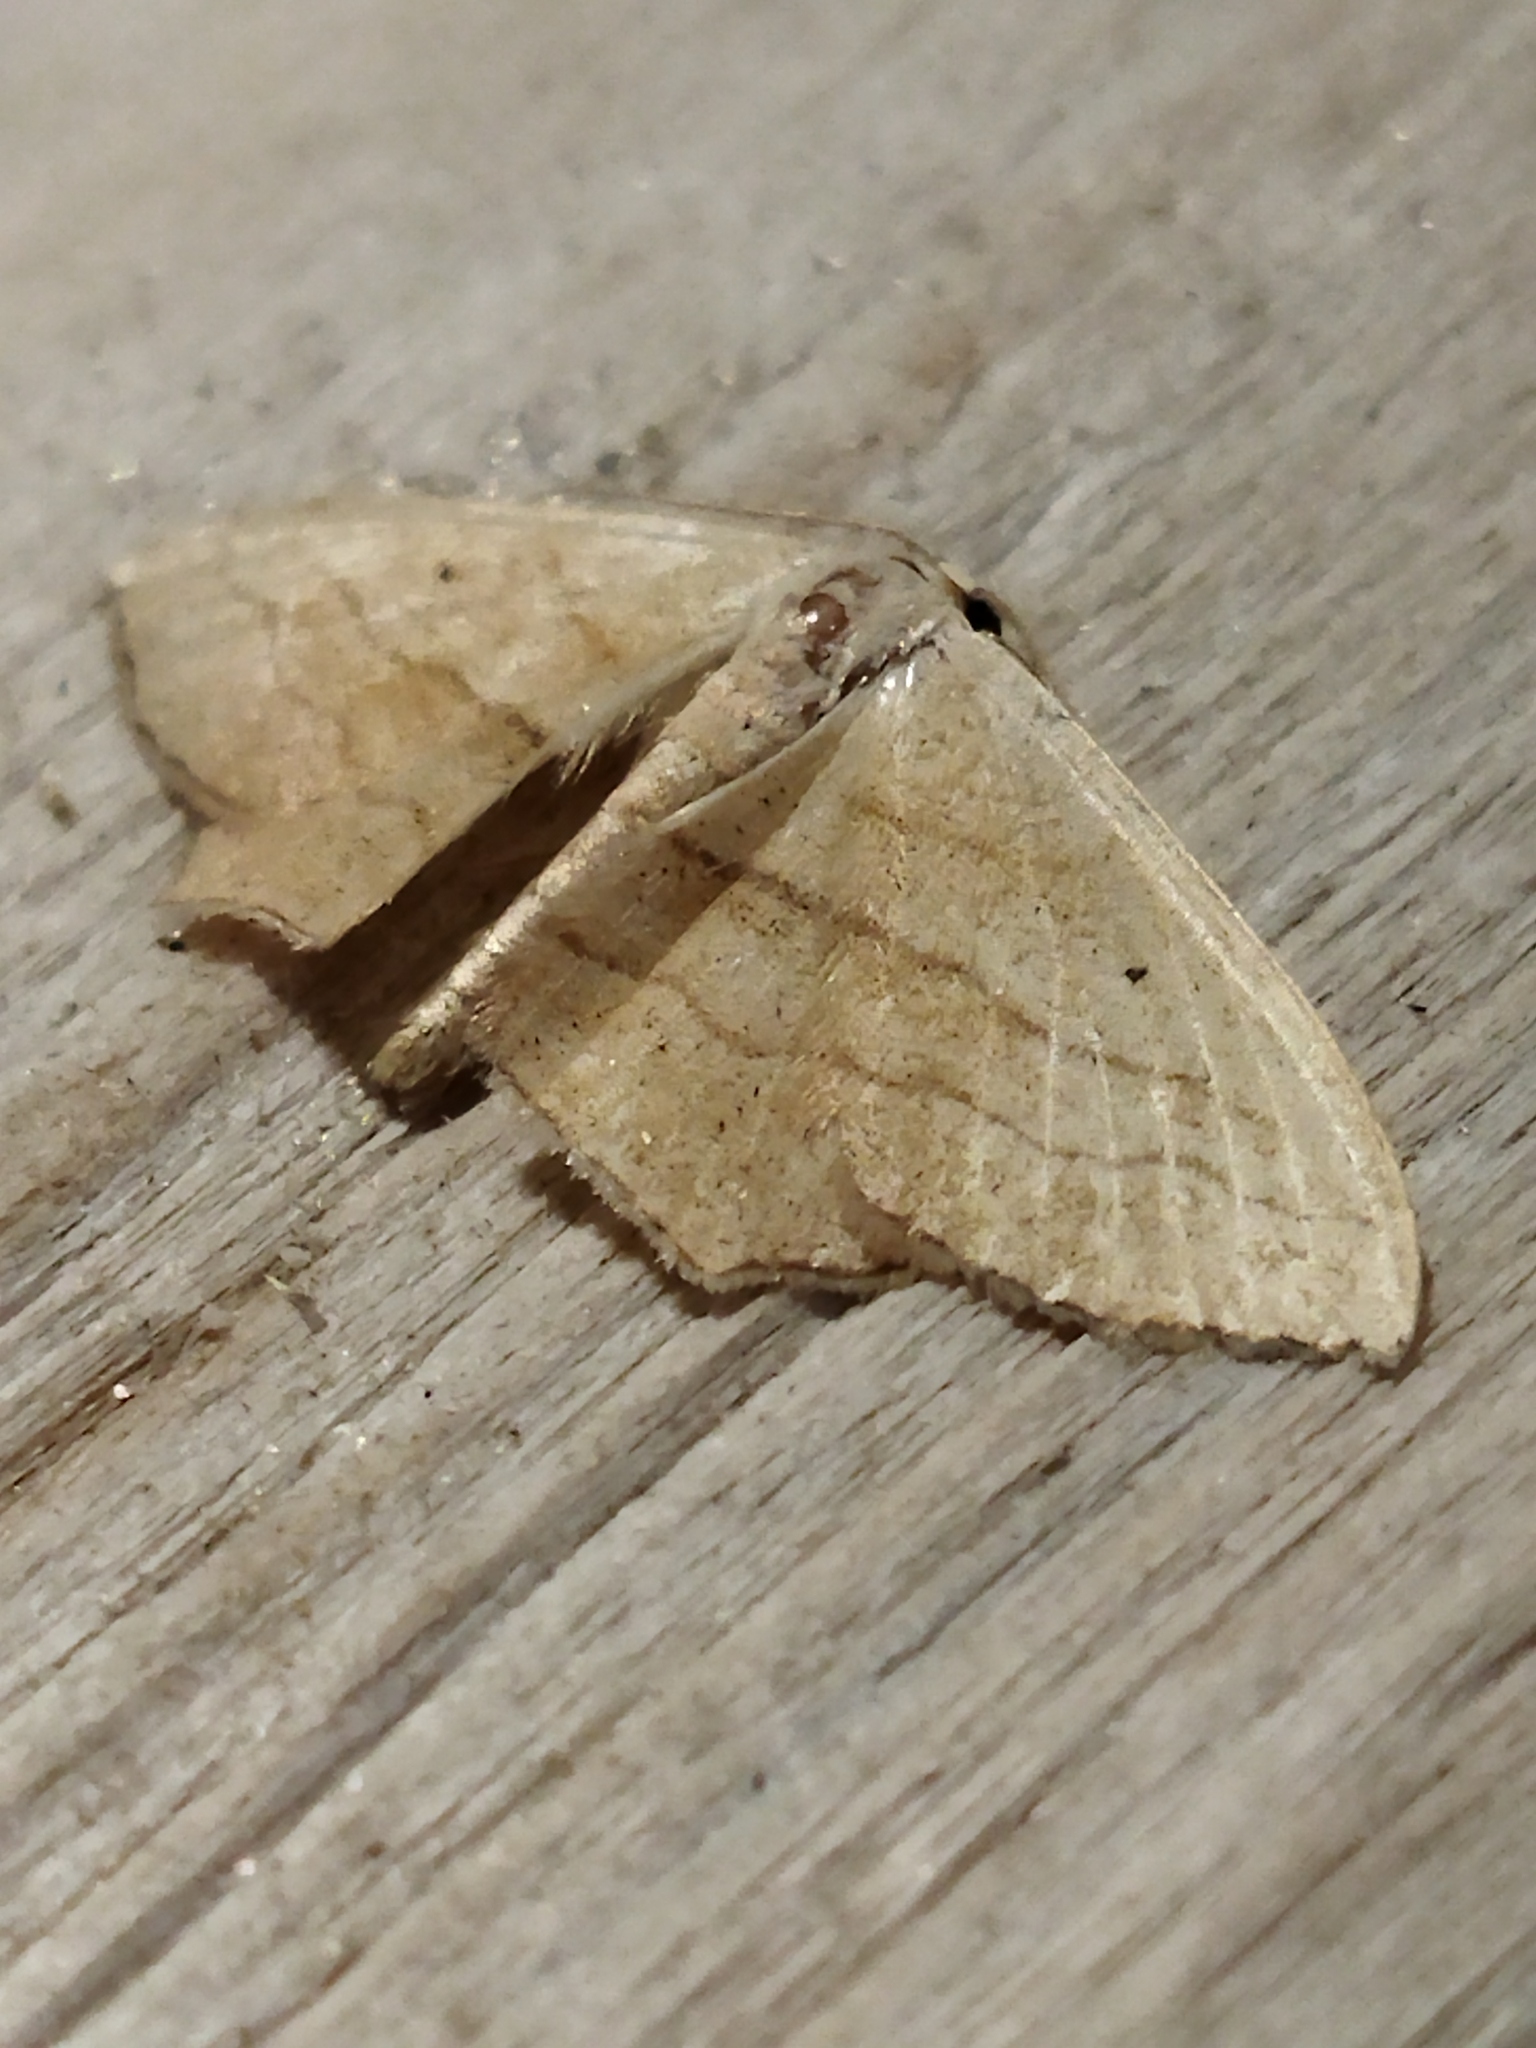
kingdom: Animalia
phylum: Arthropoda
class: Insecta
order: Lepidoptera
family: Geometridae
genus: Scopula
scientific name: Scopula imitaria
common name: Small blood-vein
